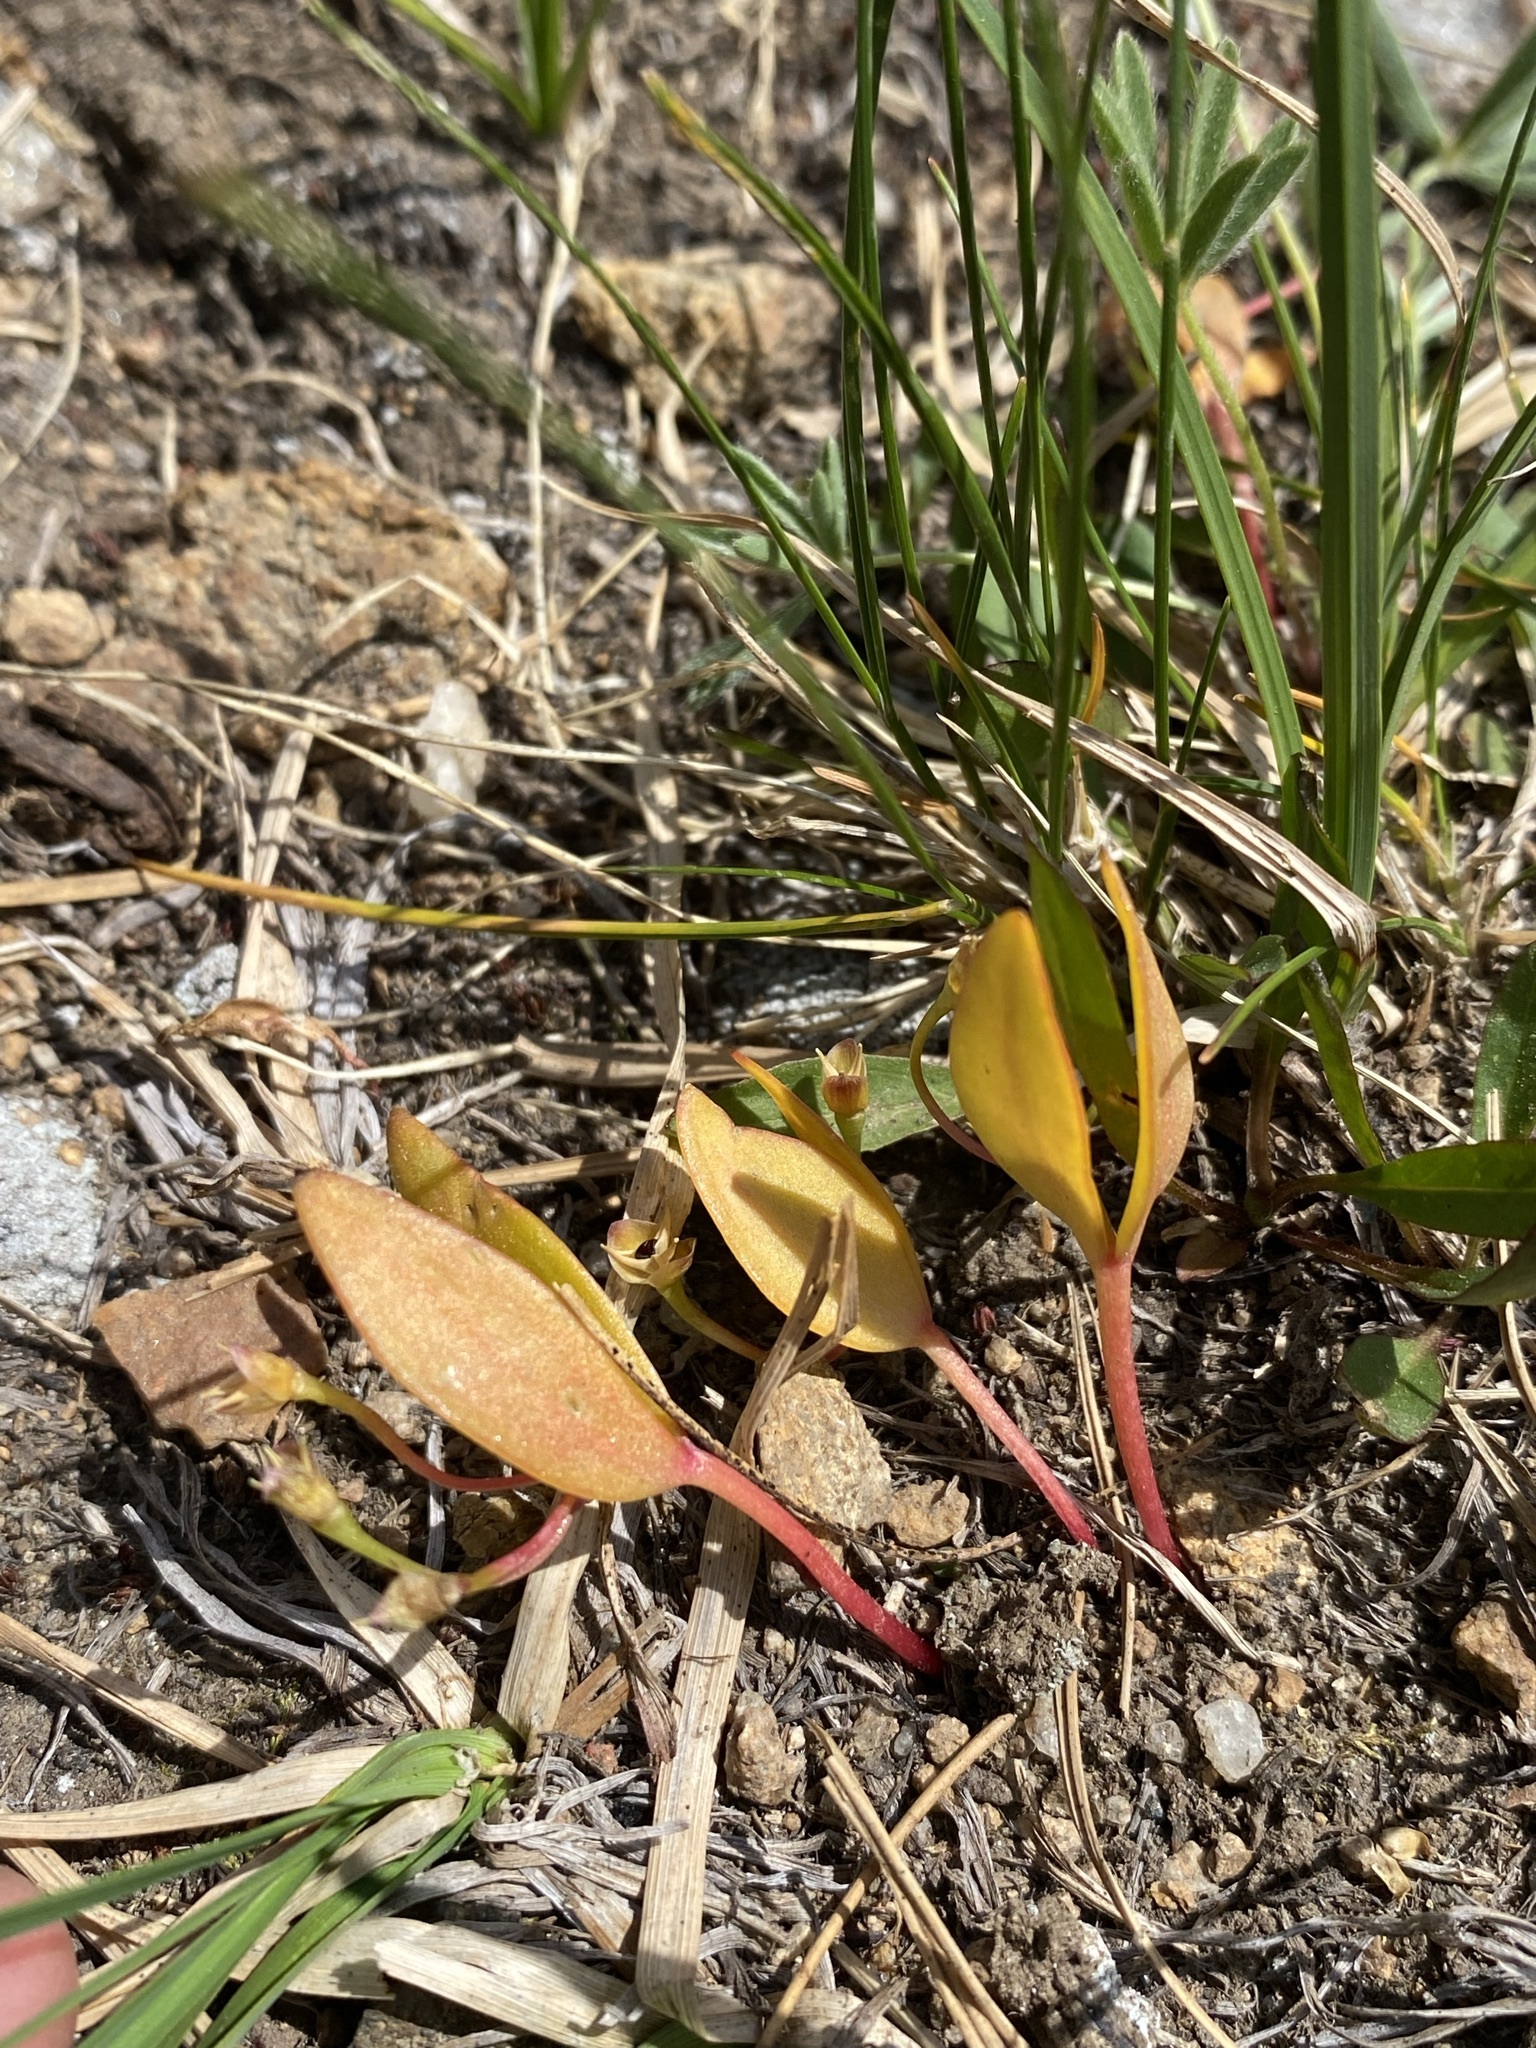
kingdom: Plantae
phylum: Tracheophyta
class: Magnoliopsida
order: Caryophyllales
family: Montiaceae
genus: Claytonia
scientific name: Claytonia lanceolata
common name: Western spring-beauty
